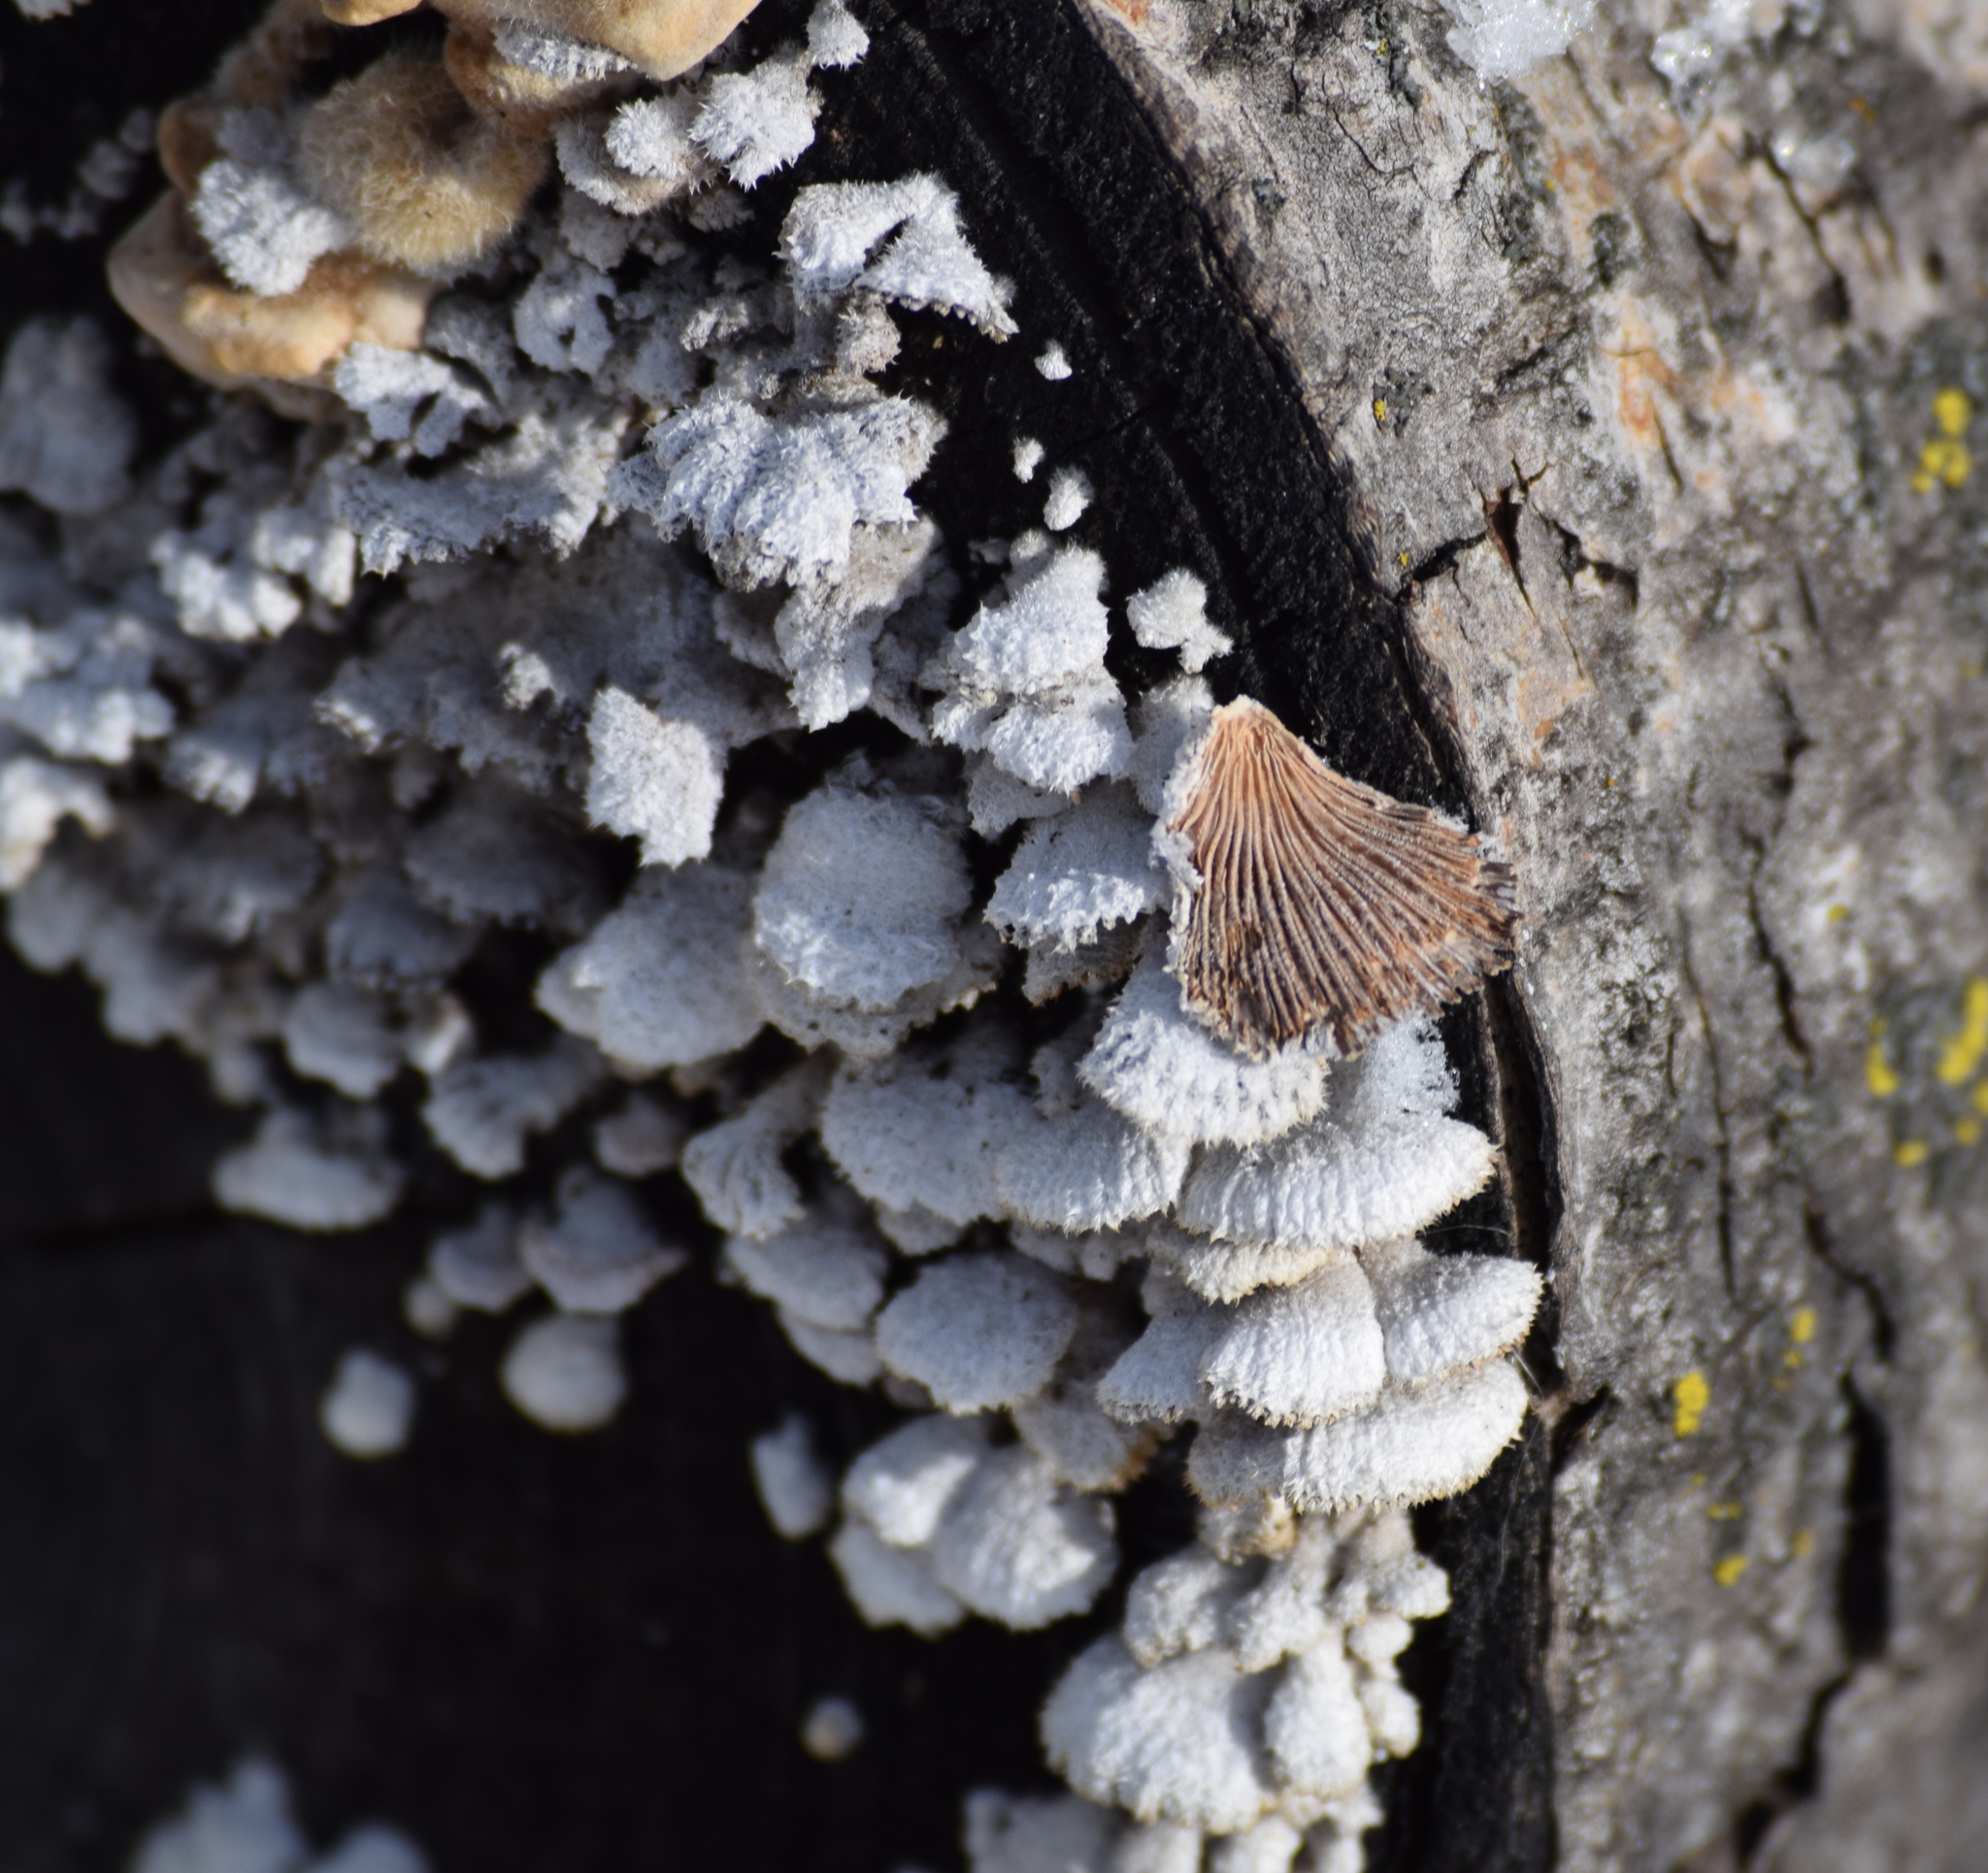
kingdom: Fungi
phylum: Basidiomycota
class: Agaricomycetes
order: Agaricales
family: Schizophyllaceae
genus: Schizophyllum
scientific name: Schizophyllum commune
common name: Common porecrust
